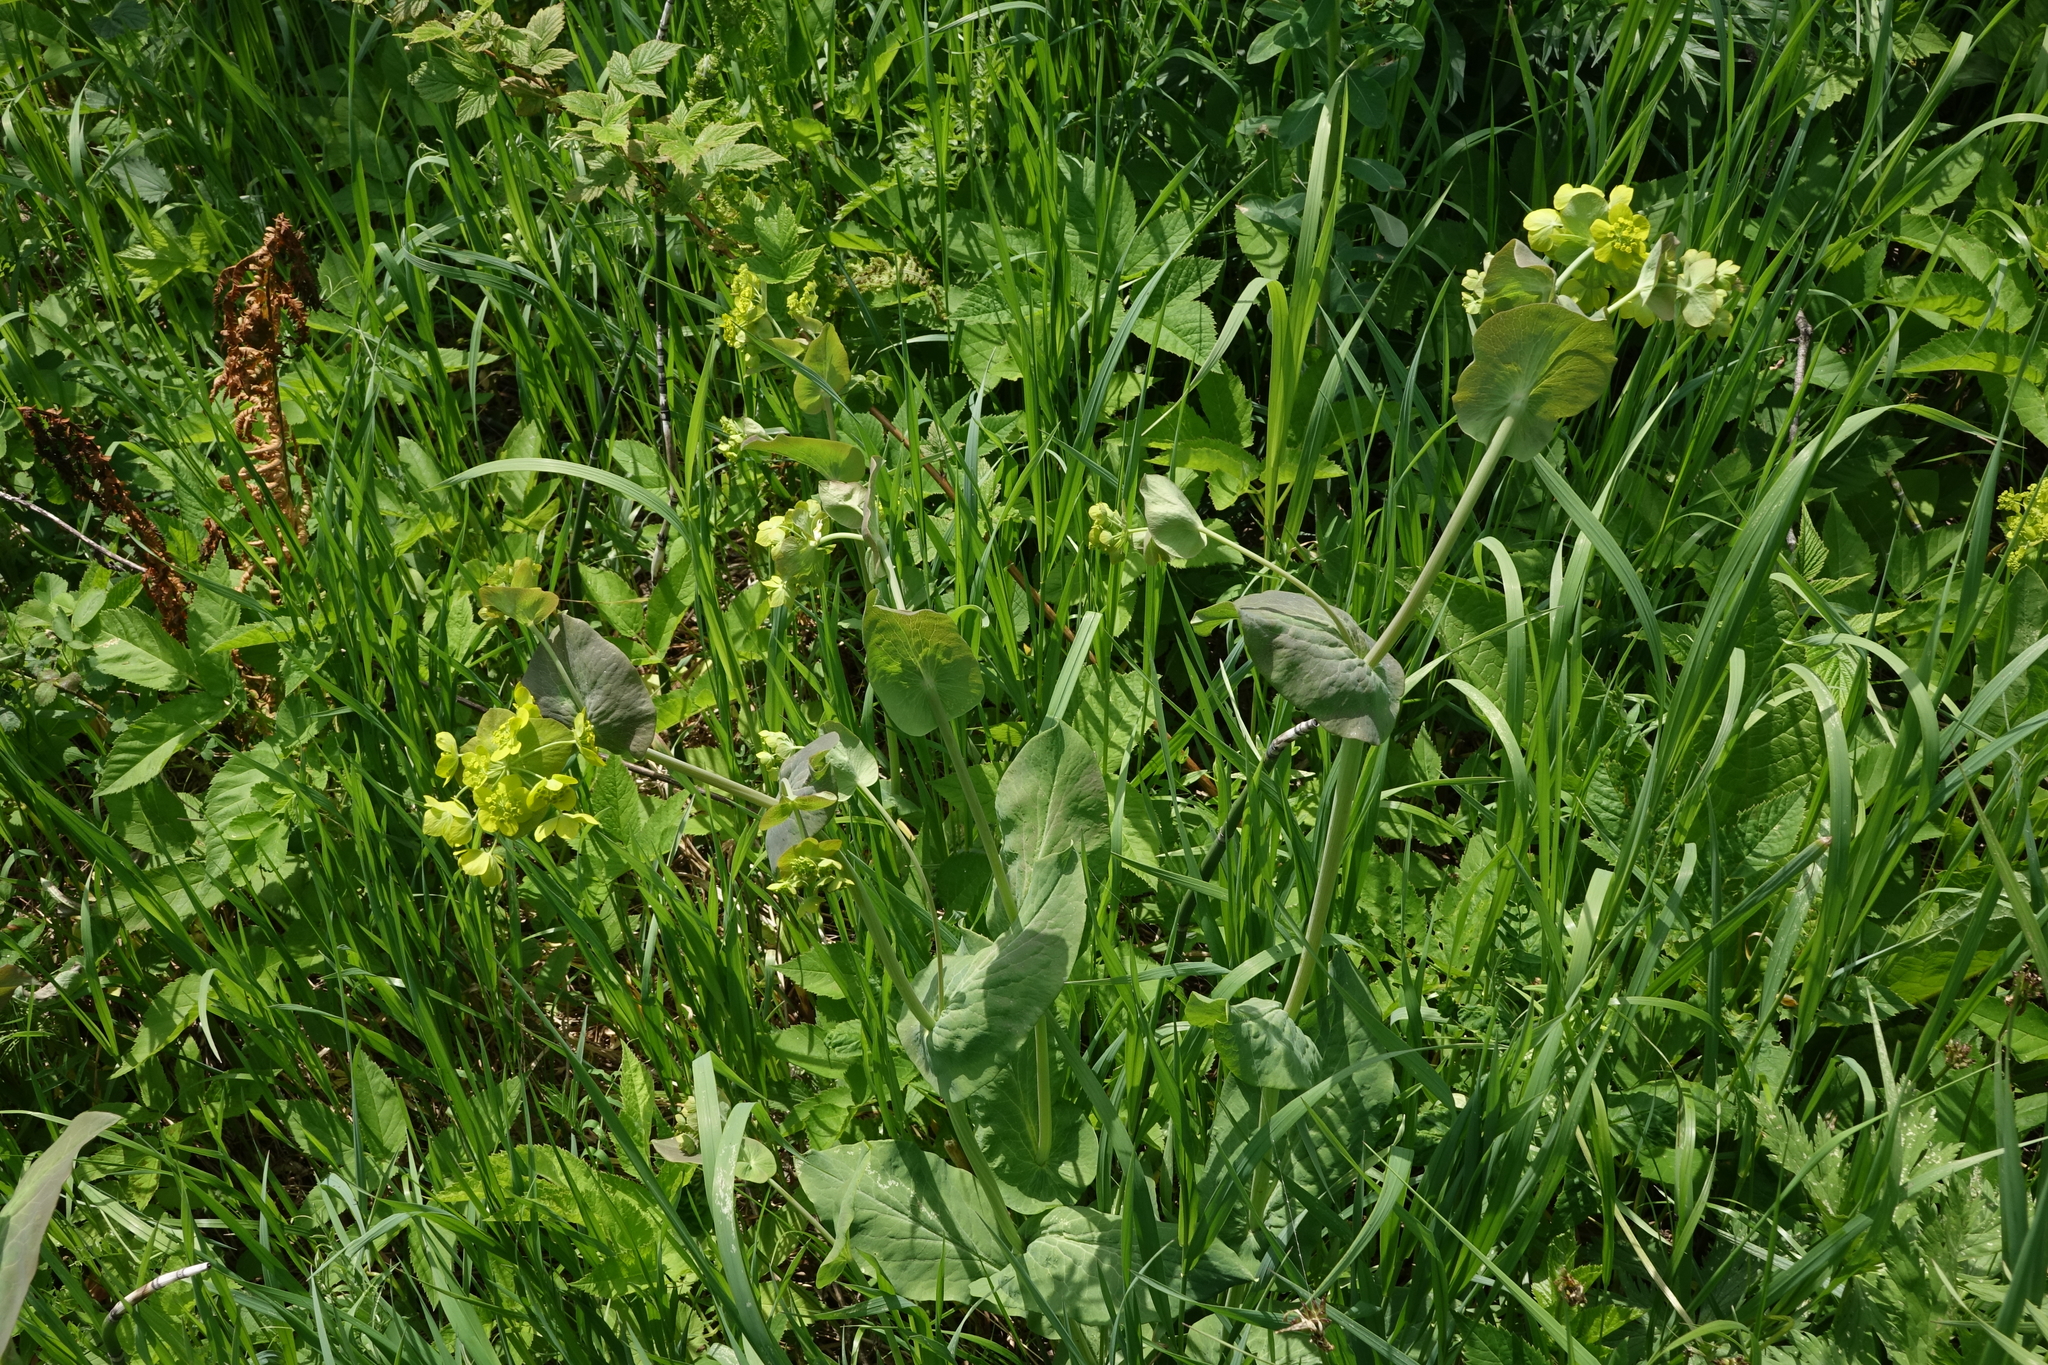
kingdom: Plantae
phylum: Tracheophyta
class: Magnoliopsida
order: Apiales
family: Apiaceae
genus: Bupleurum
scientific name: Bupleurum aureum
